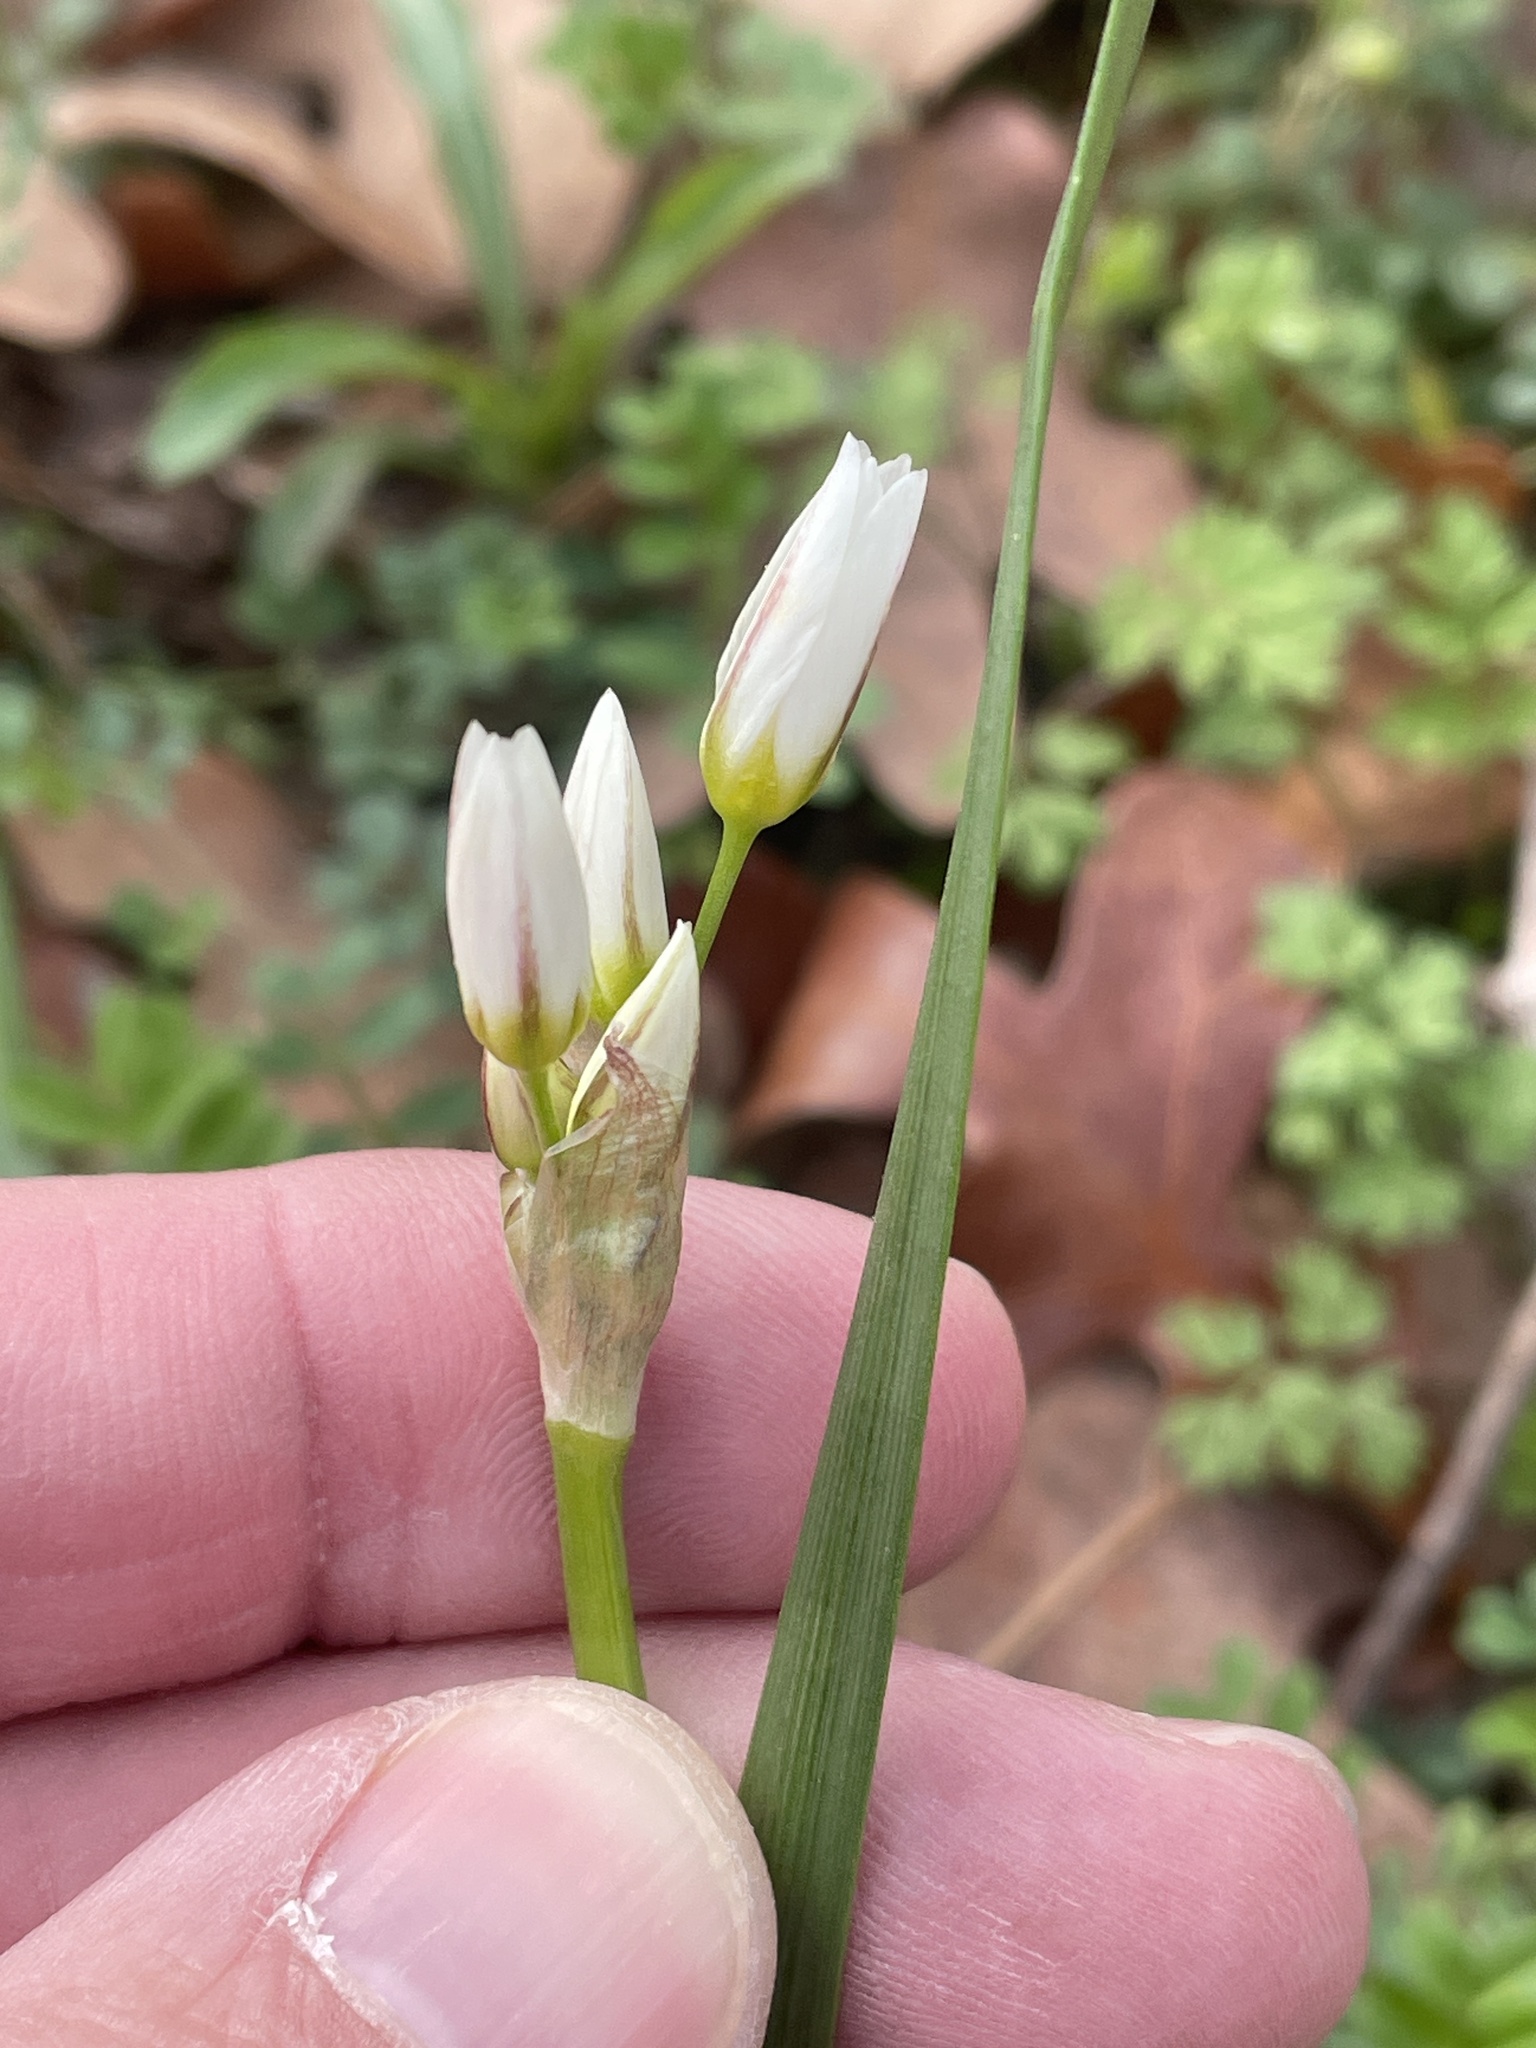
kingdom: Plantae
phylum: Tracheophyta
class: Liliopsida
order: Asparagales
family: Amaryllidaceae
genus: Nothoscordum
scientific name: Nothoscordum bivalve
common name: Crow-poison
